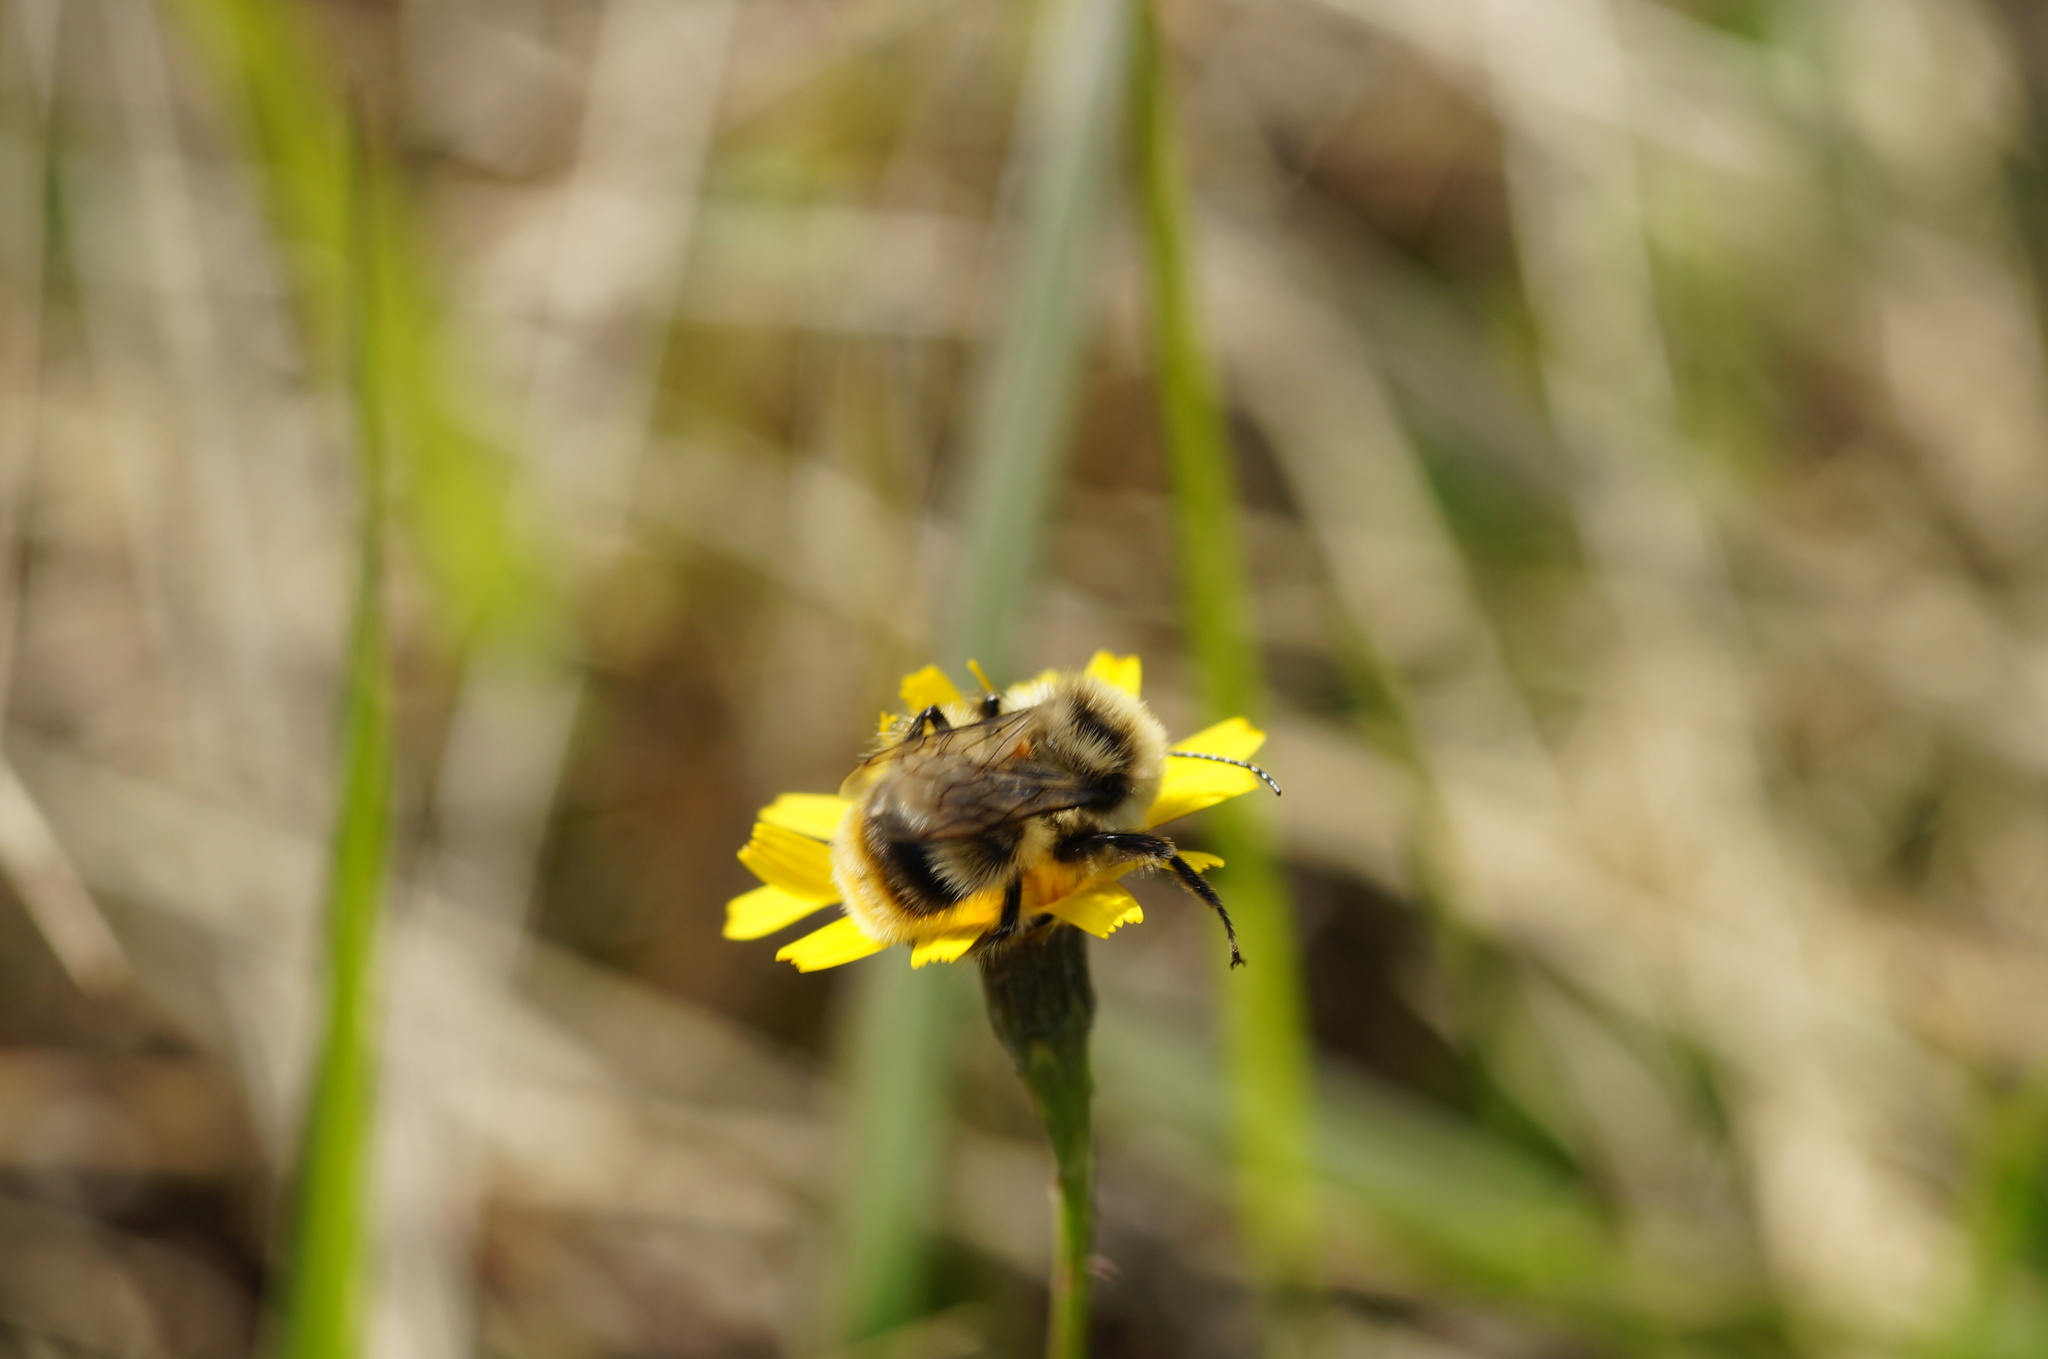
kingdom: Animalia
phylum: Arthropoda
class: Insecta
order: Hymenoptera
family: Apidae
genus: Bombus
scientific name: Bombus sylvarum
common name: Shrill carder bee
